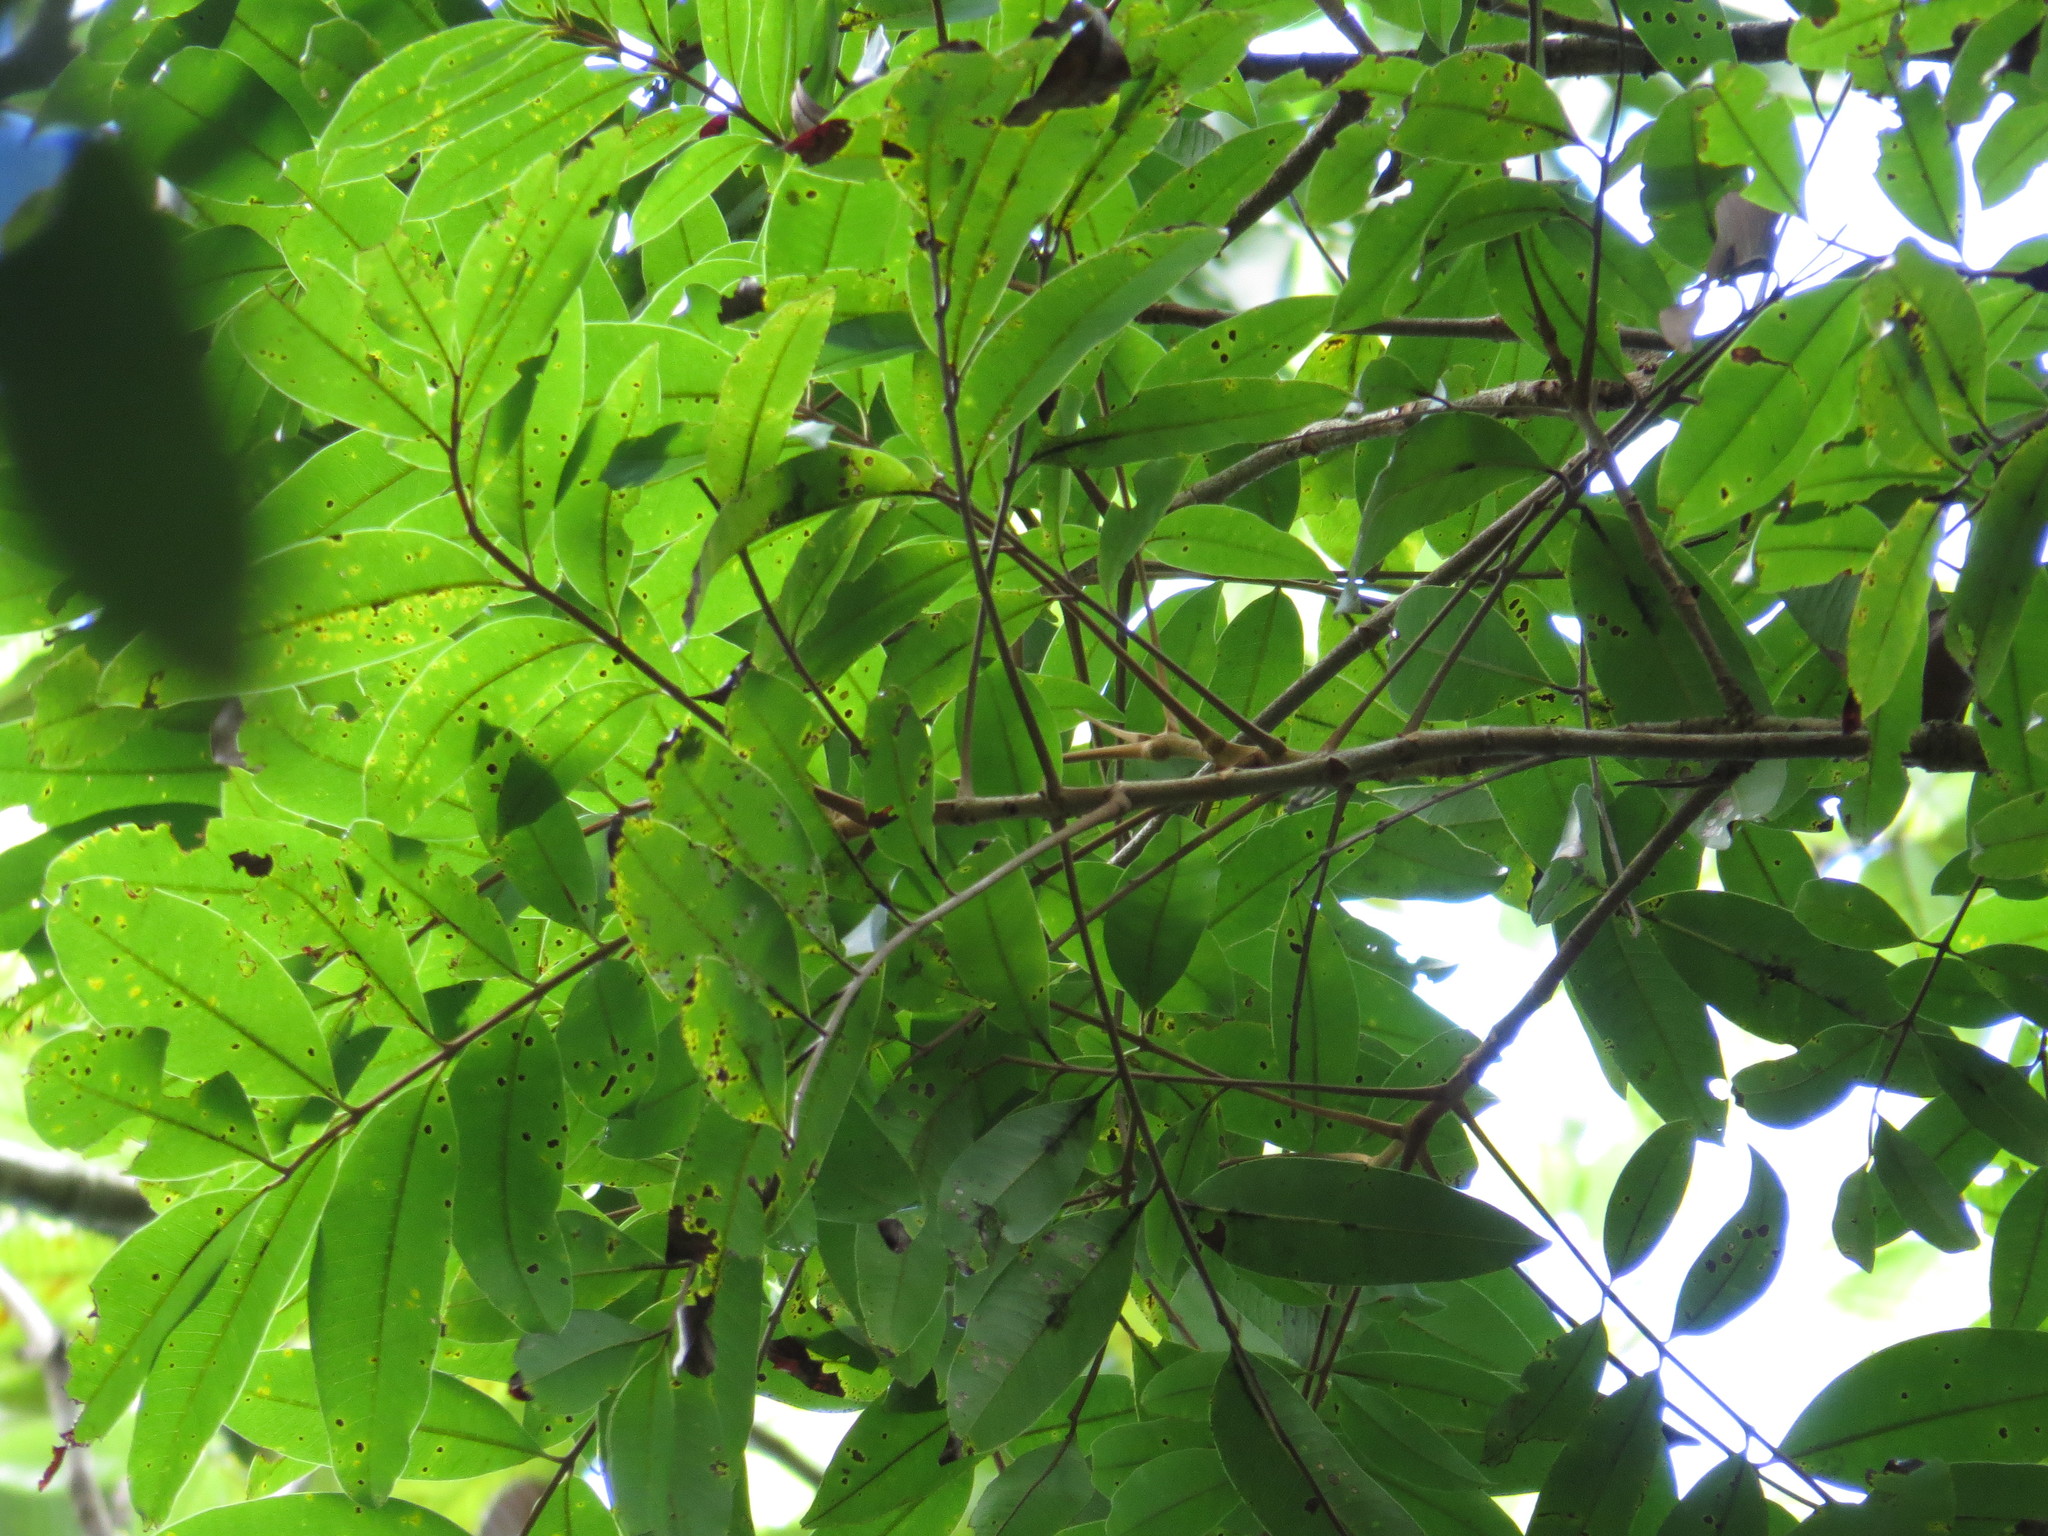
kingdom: Plantae
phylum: Tracheophyta
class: Magnoliopsida
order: Sapindales
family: Anacardiaceae
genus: Blepharocarya
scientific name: Blepharocarya involucrigera
